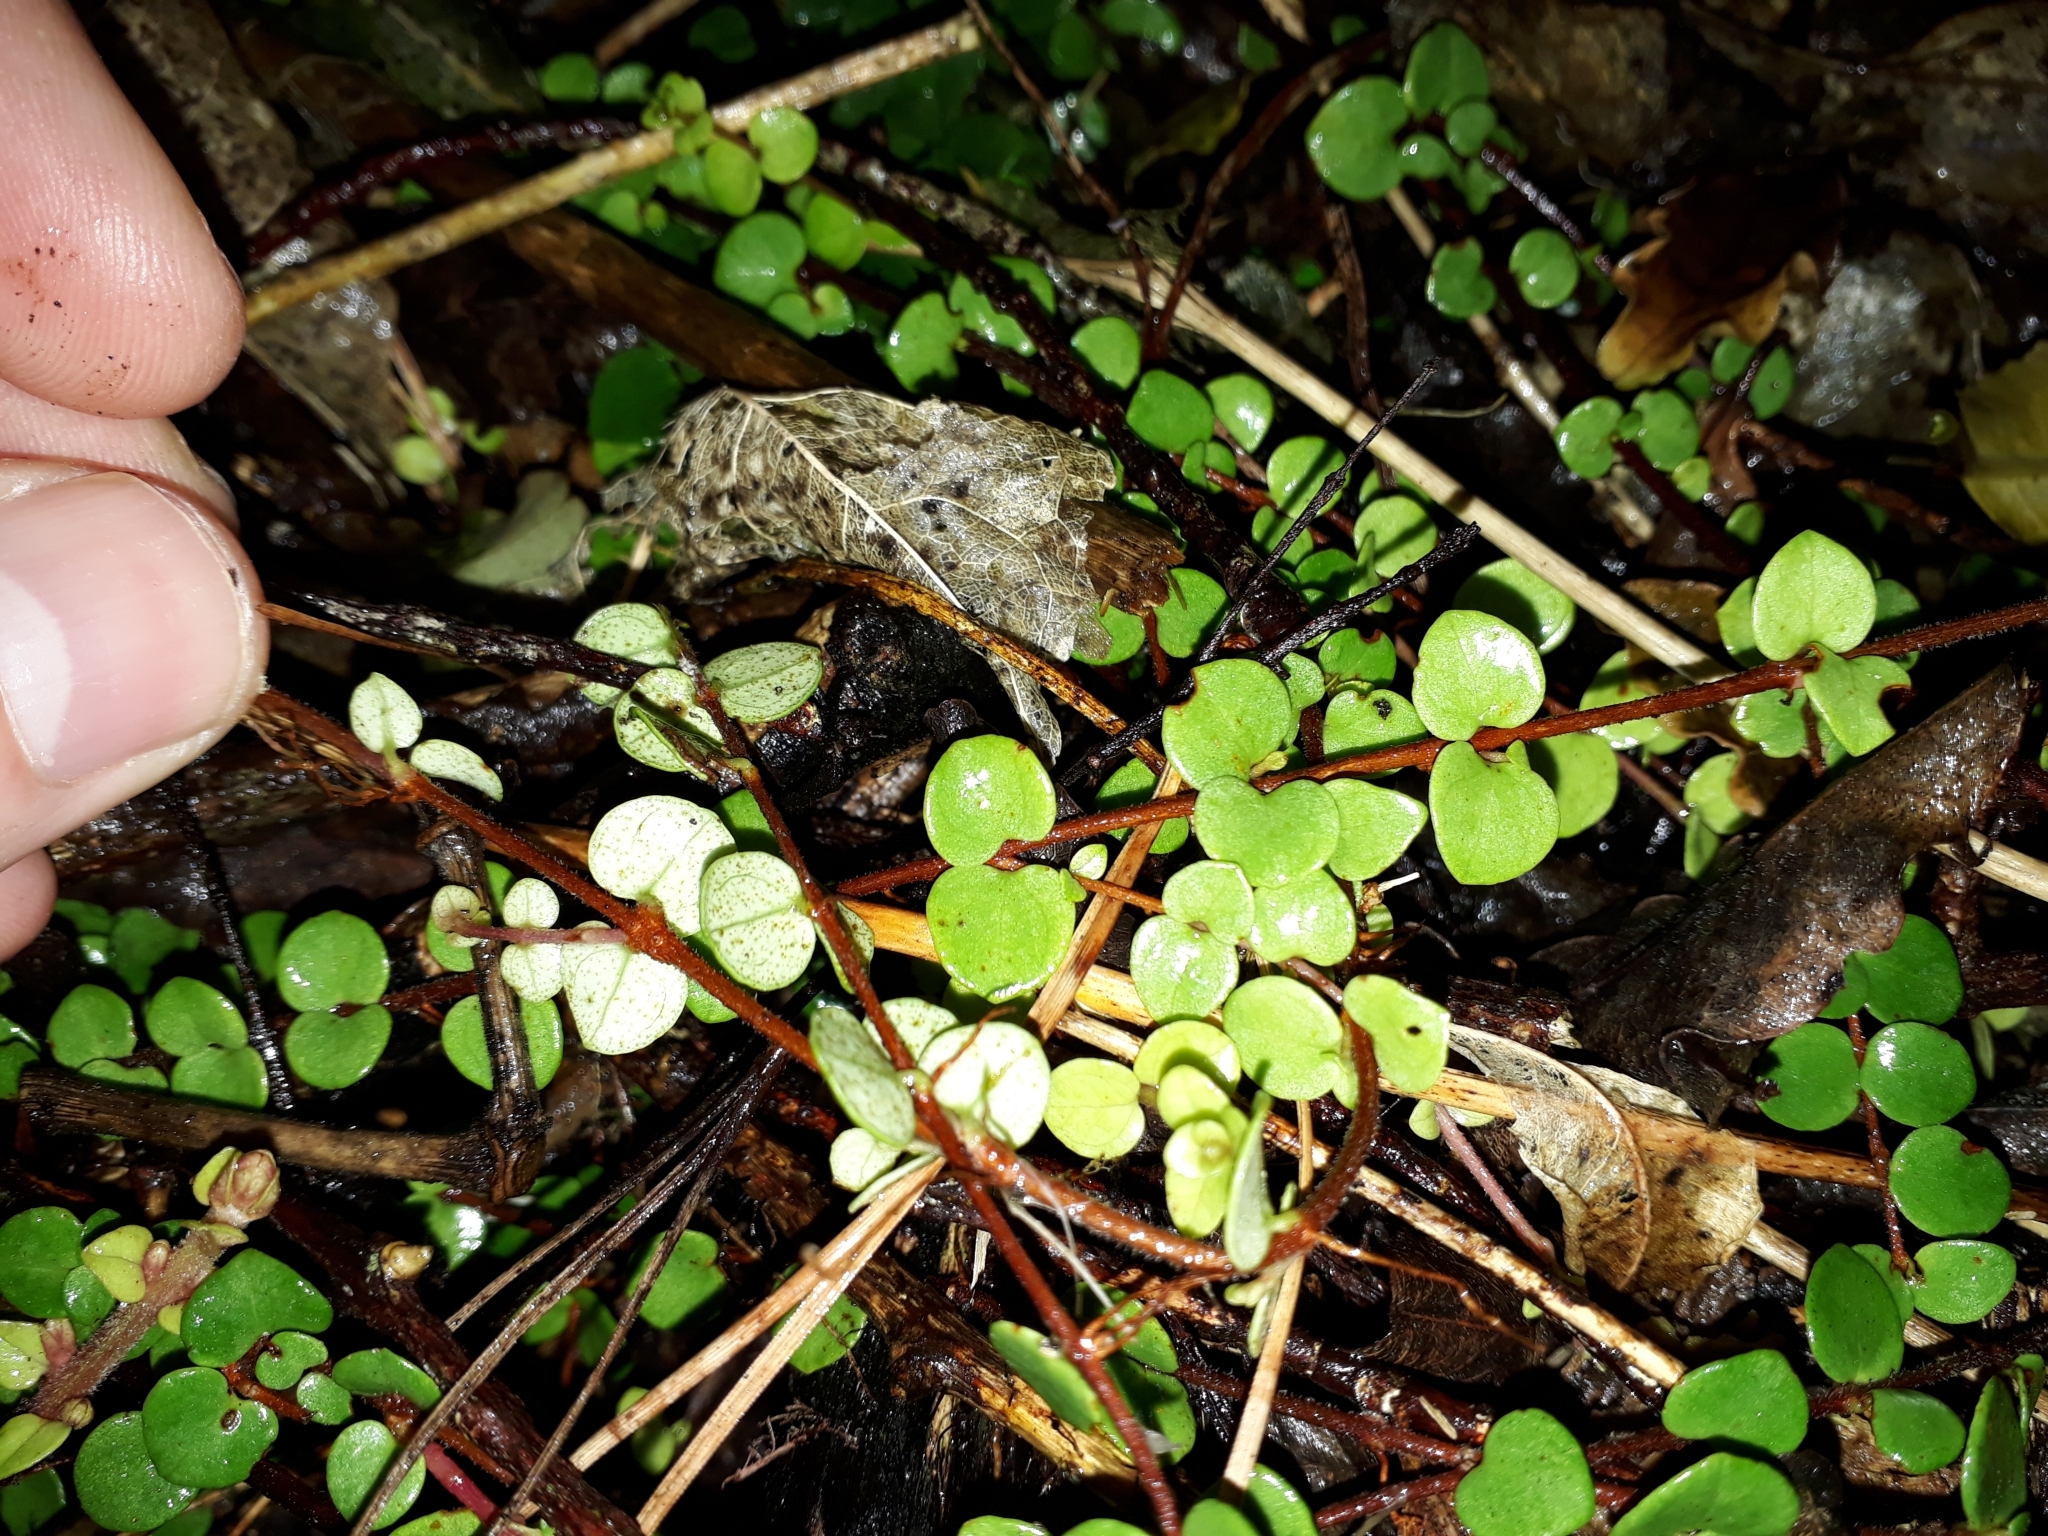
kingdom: Plantae
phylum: Tracheophyta
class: Magnoliopsida
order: Myrtales
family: Myrtaceae
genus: Metrosideros
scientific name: Metrosideros perforata
